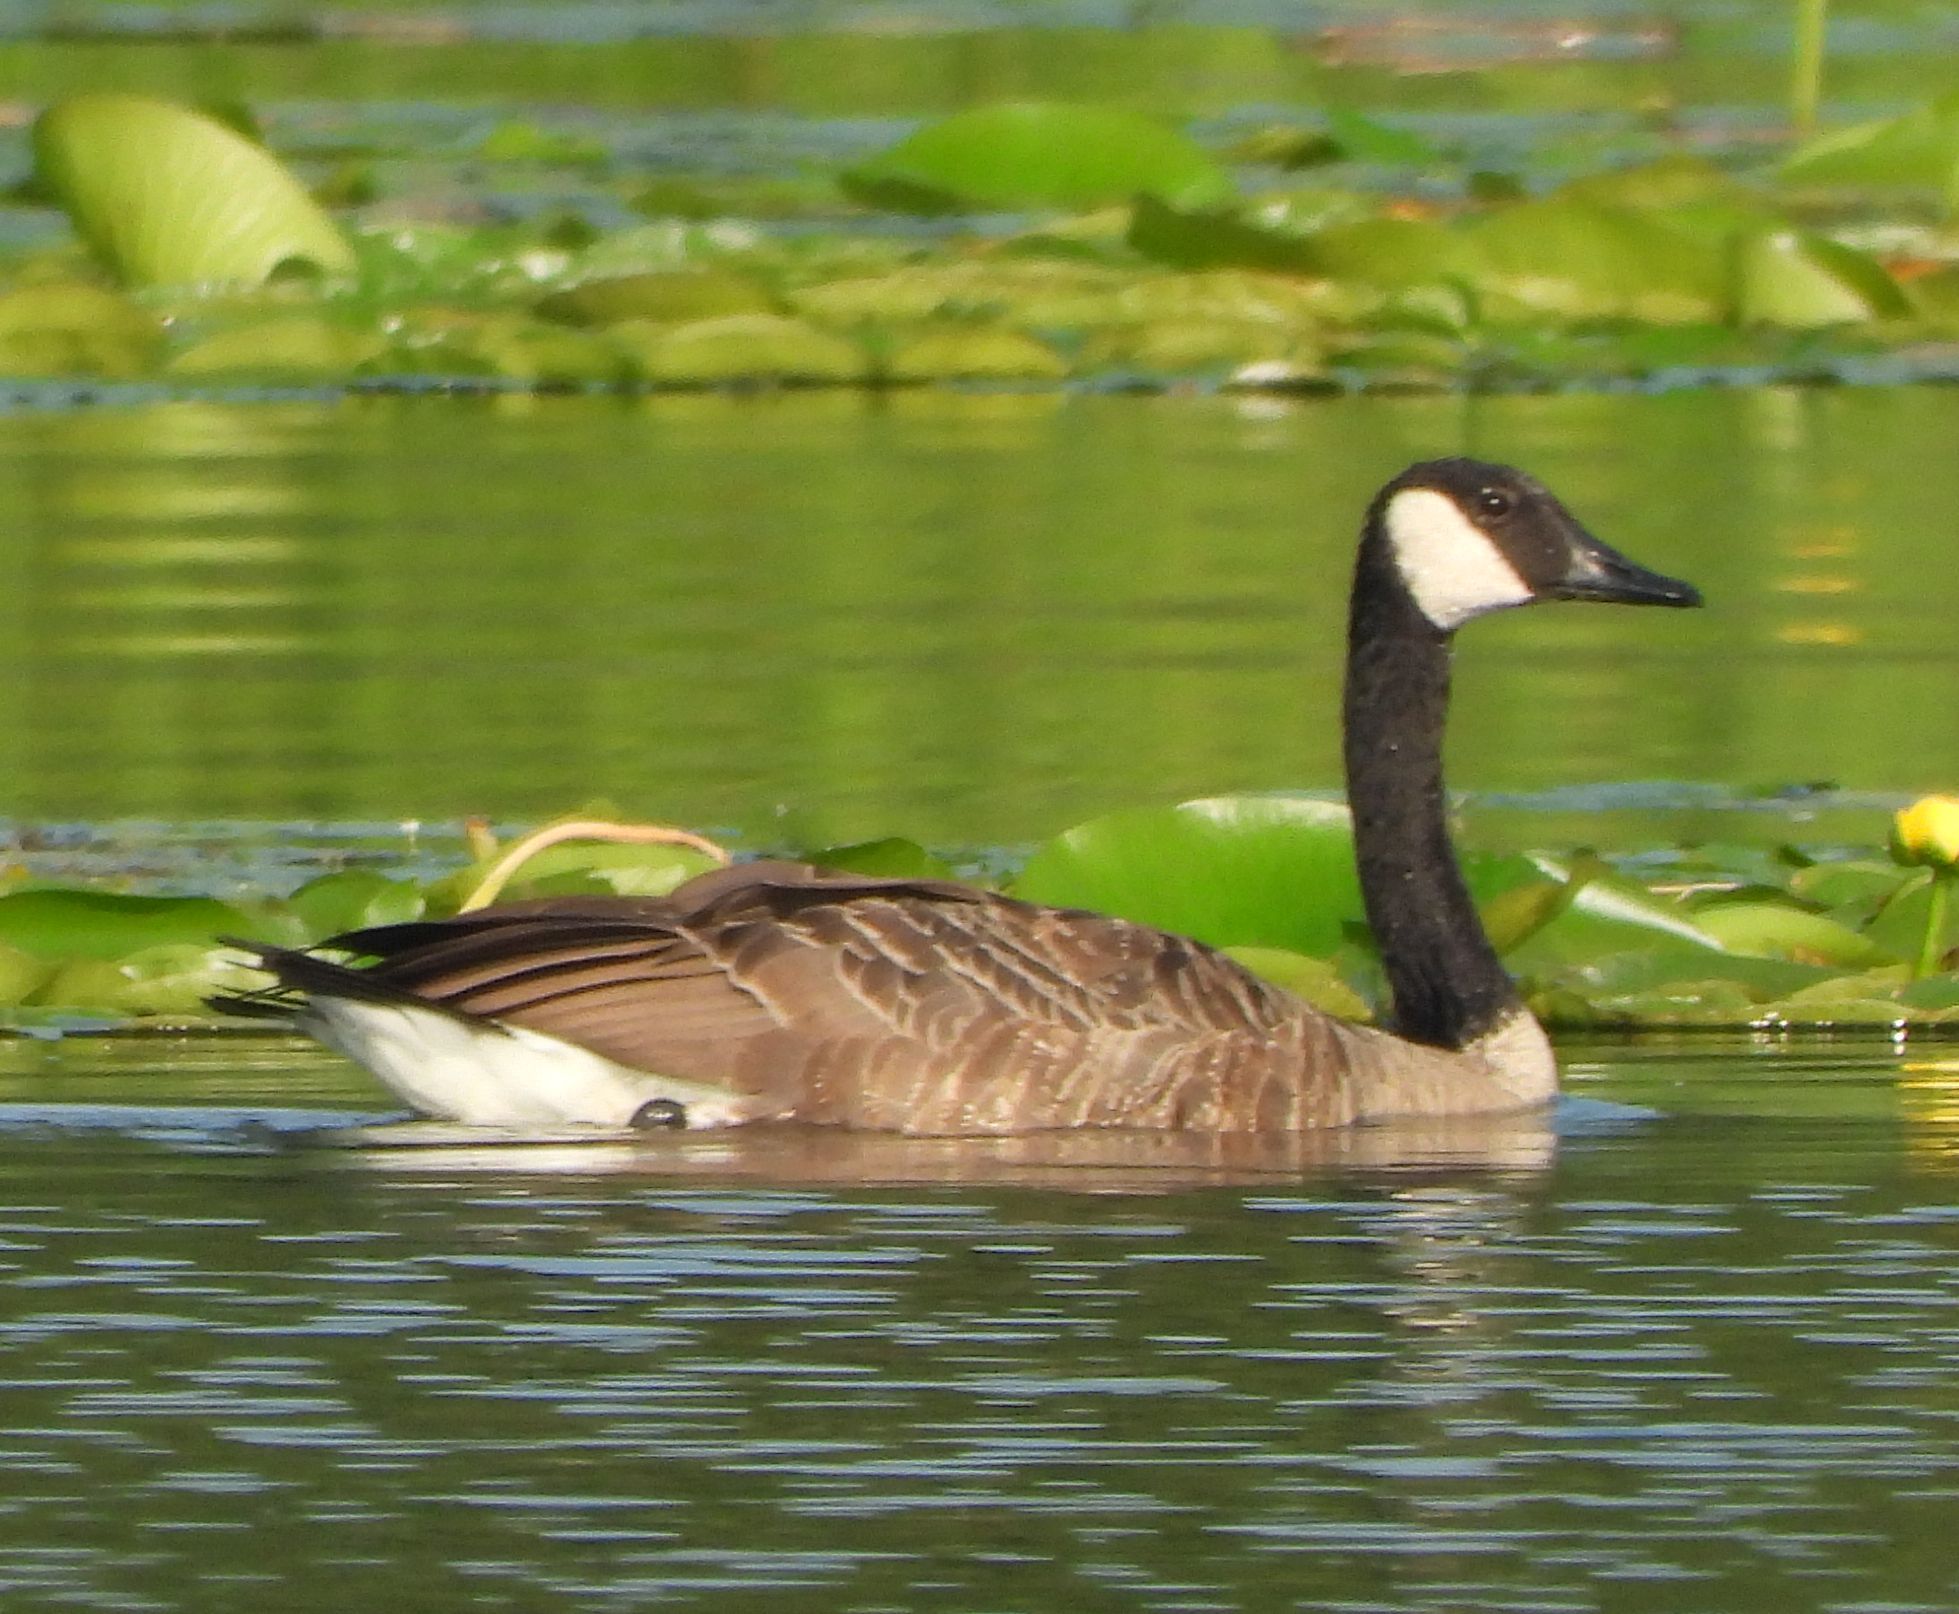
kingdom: Animalia
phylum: Chordata
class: Aves
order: Anseriformes
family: Anatidae
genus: Branta
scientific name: Branta canadensis
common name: Canada goose
